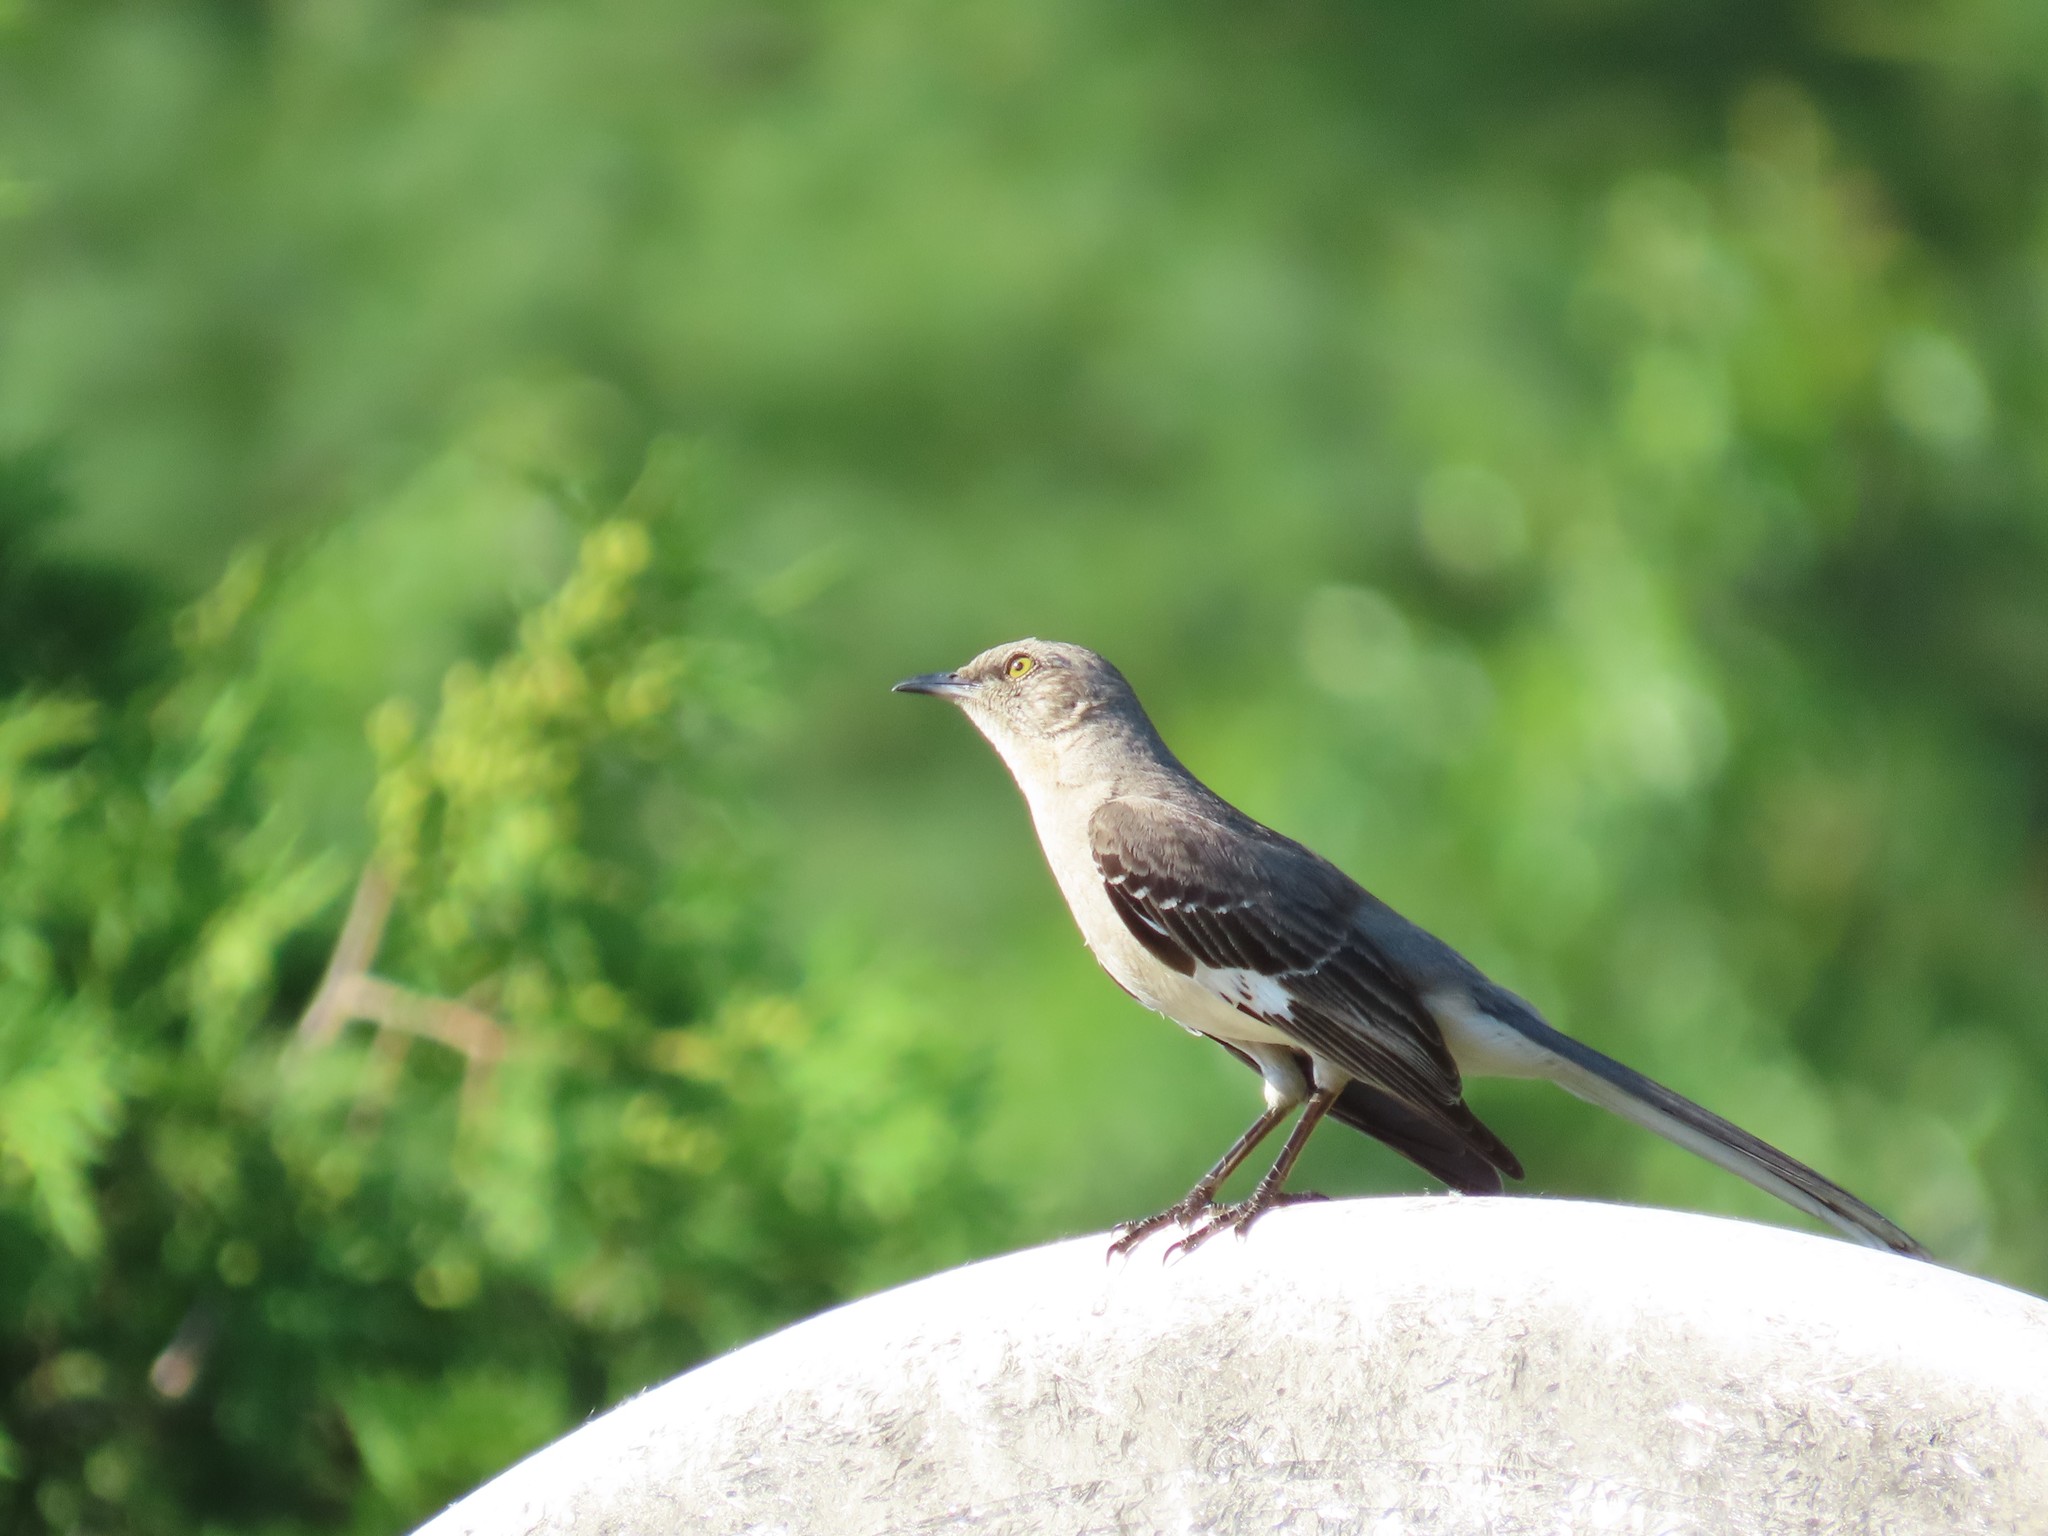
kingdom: Animalia
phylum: Chordata
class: Aves
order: Passeriformes
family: Mimidae
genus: Mimus
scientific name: Mimus polyglottos
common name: Northern mockingbird
